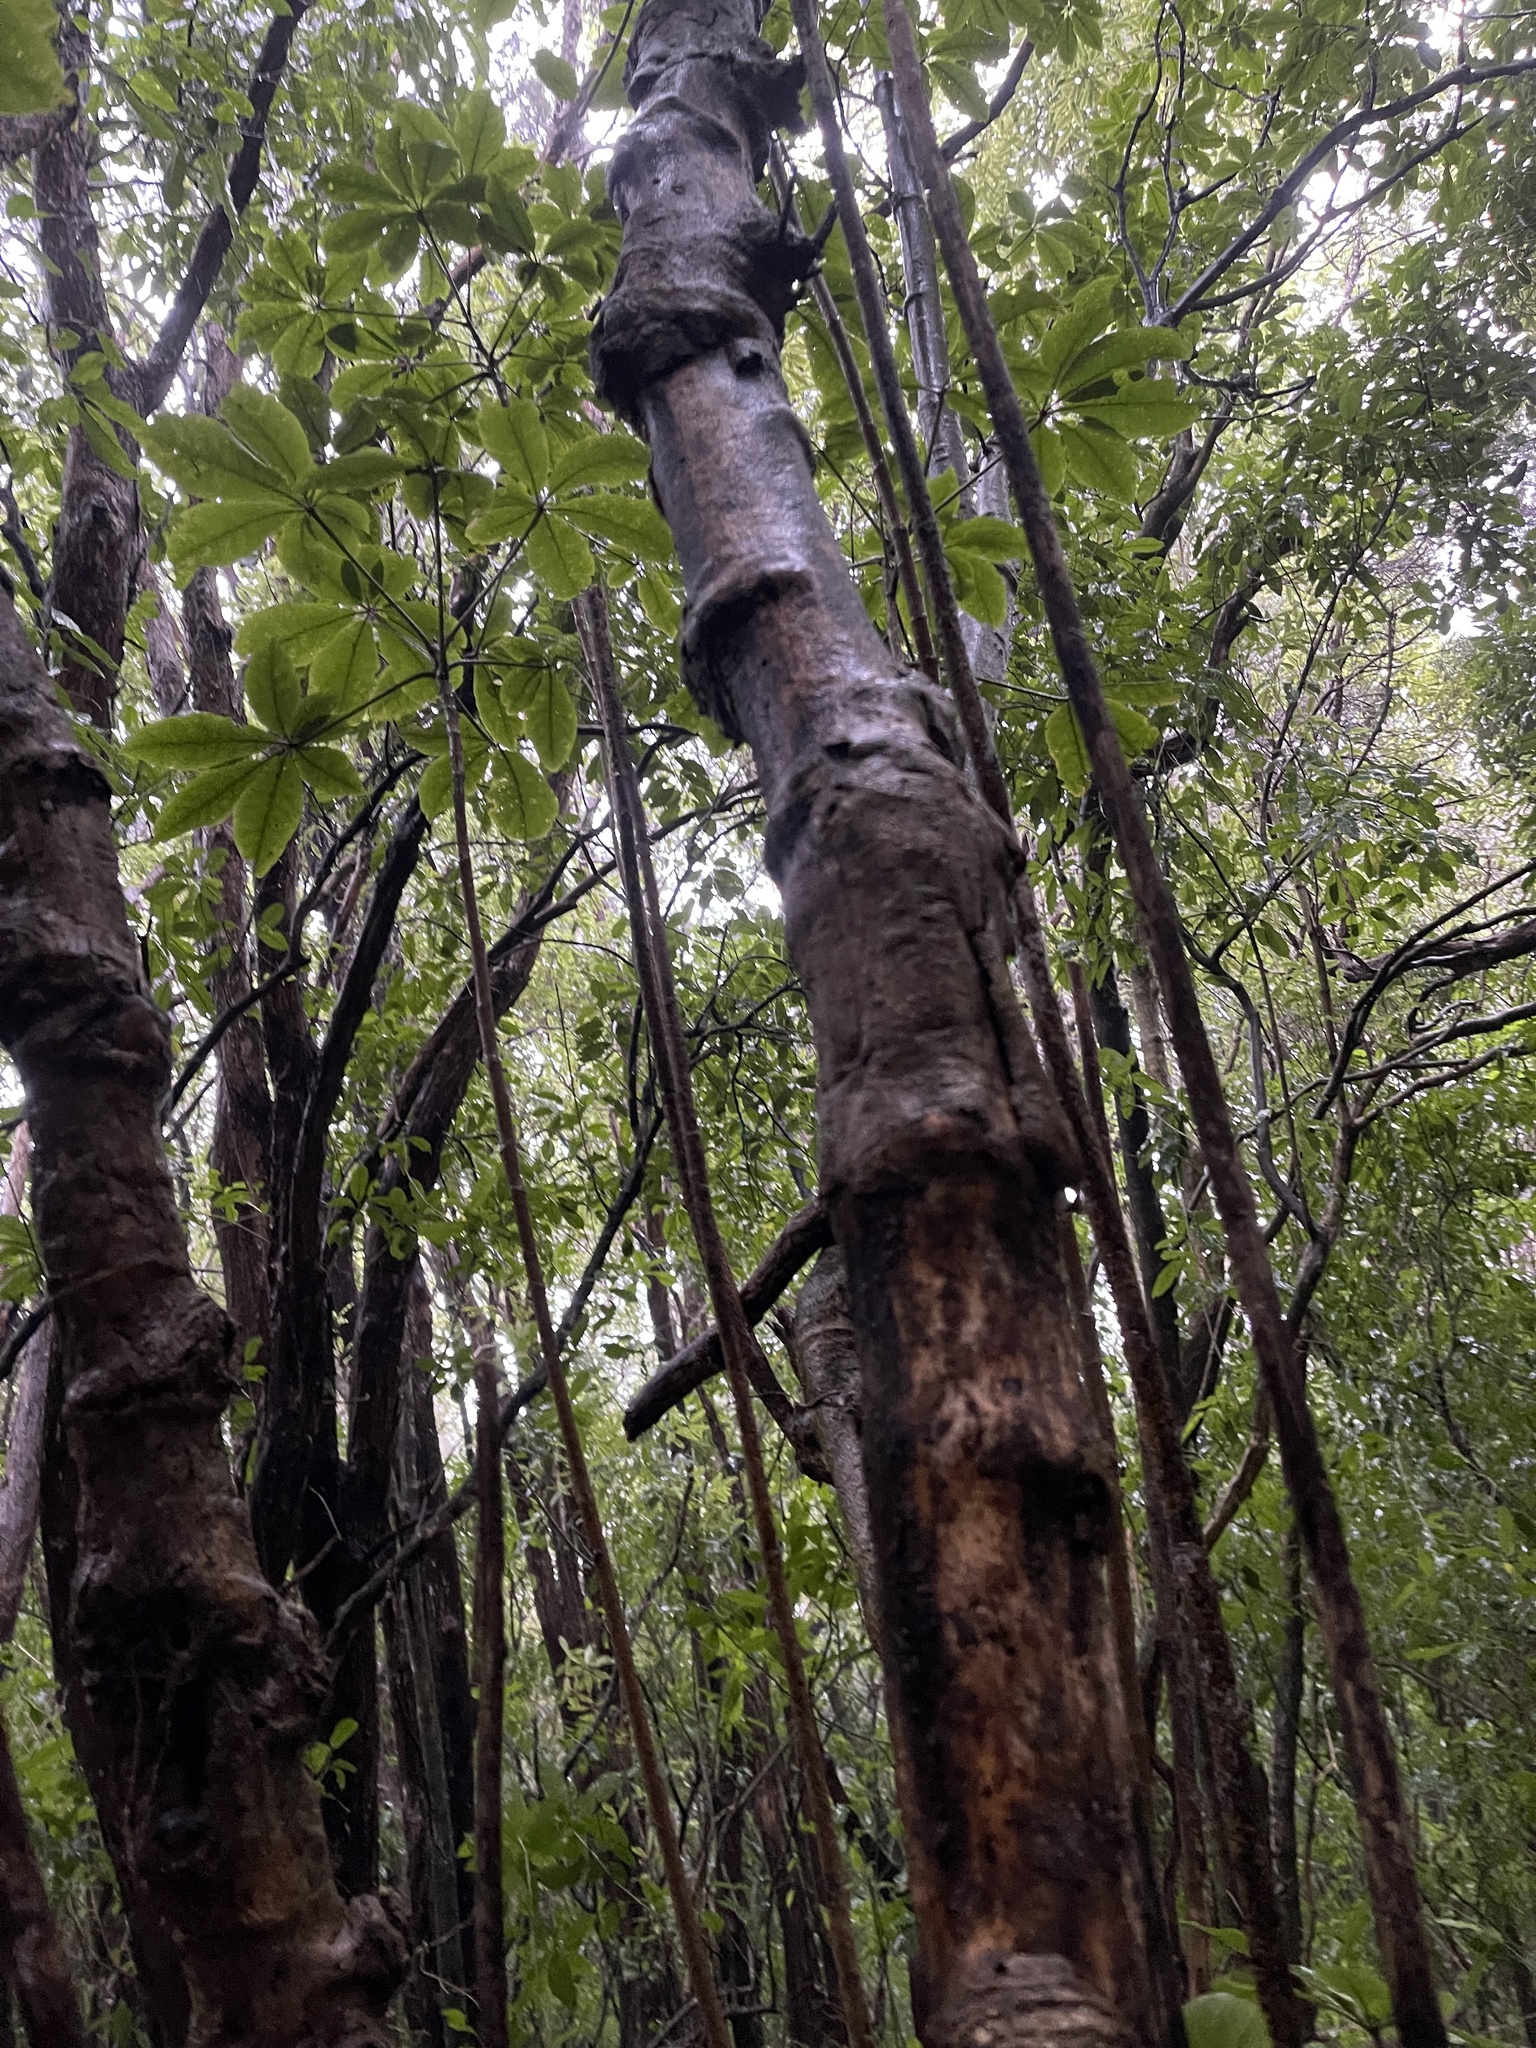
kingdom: Plantae
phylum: Tracheophyta
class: Magnoliopsida
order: Apiales
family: Araliaceae
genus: Schefflera
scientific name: Schefflera digitata
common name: Pate
